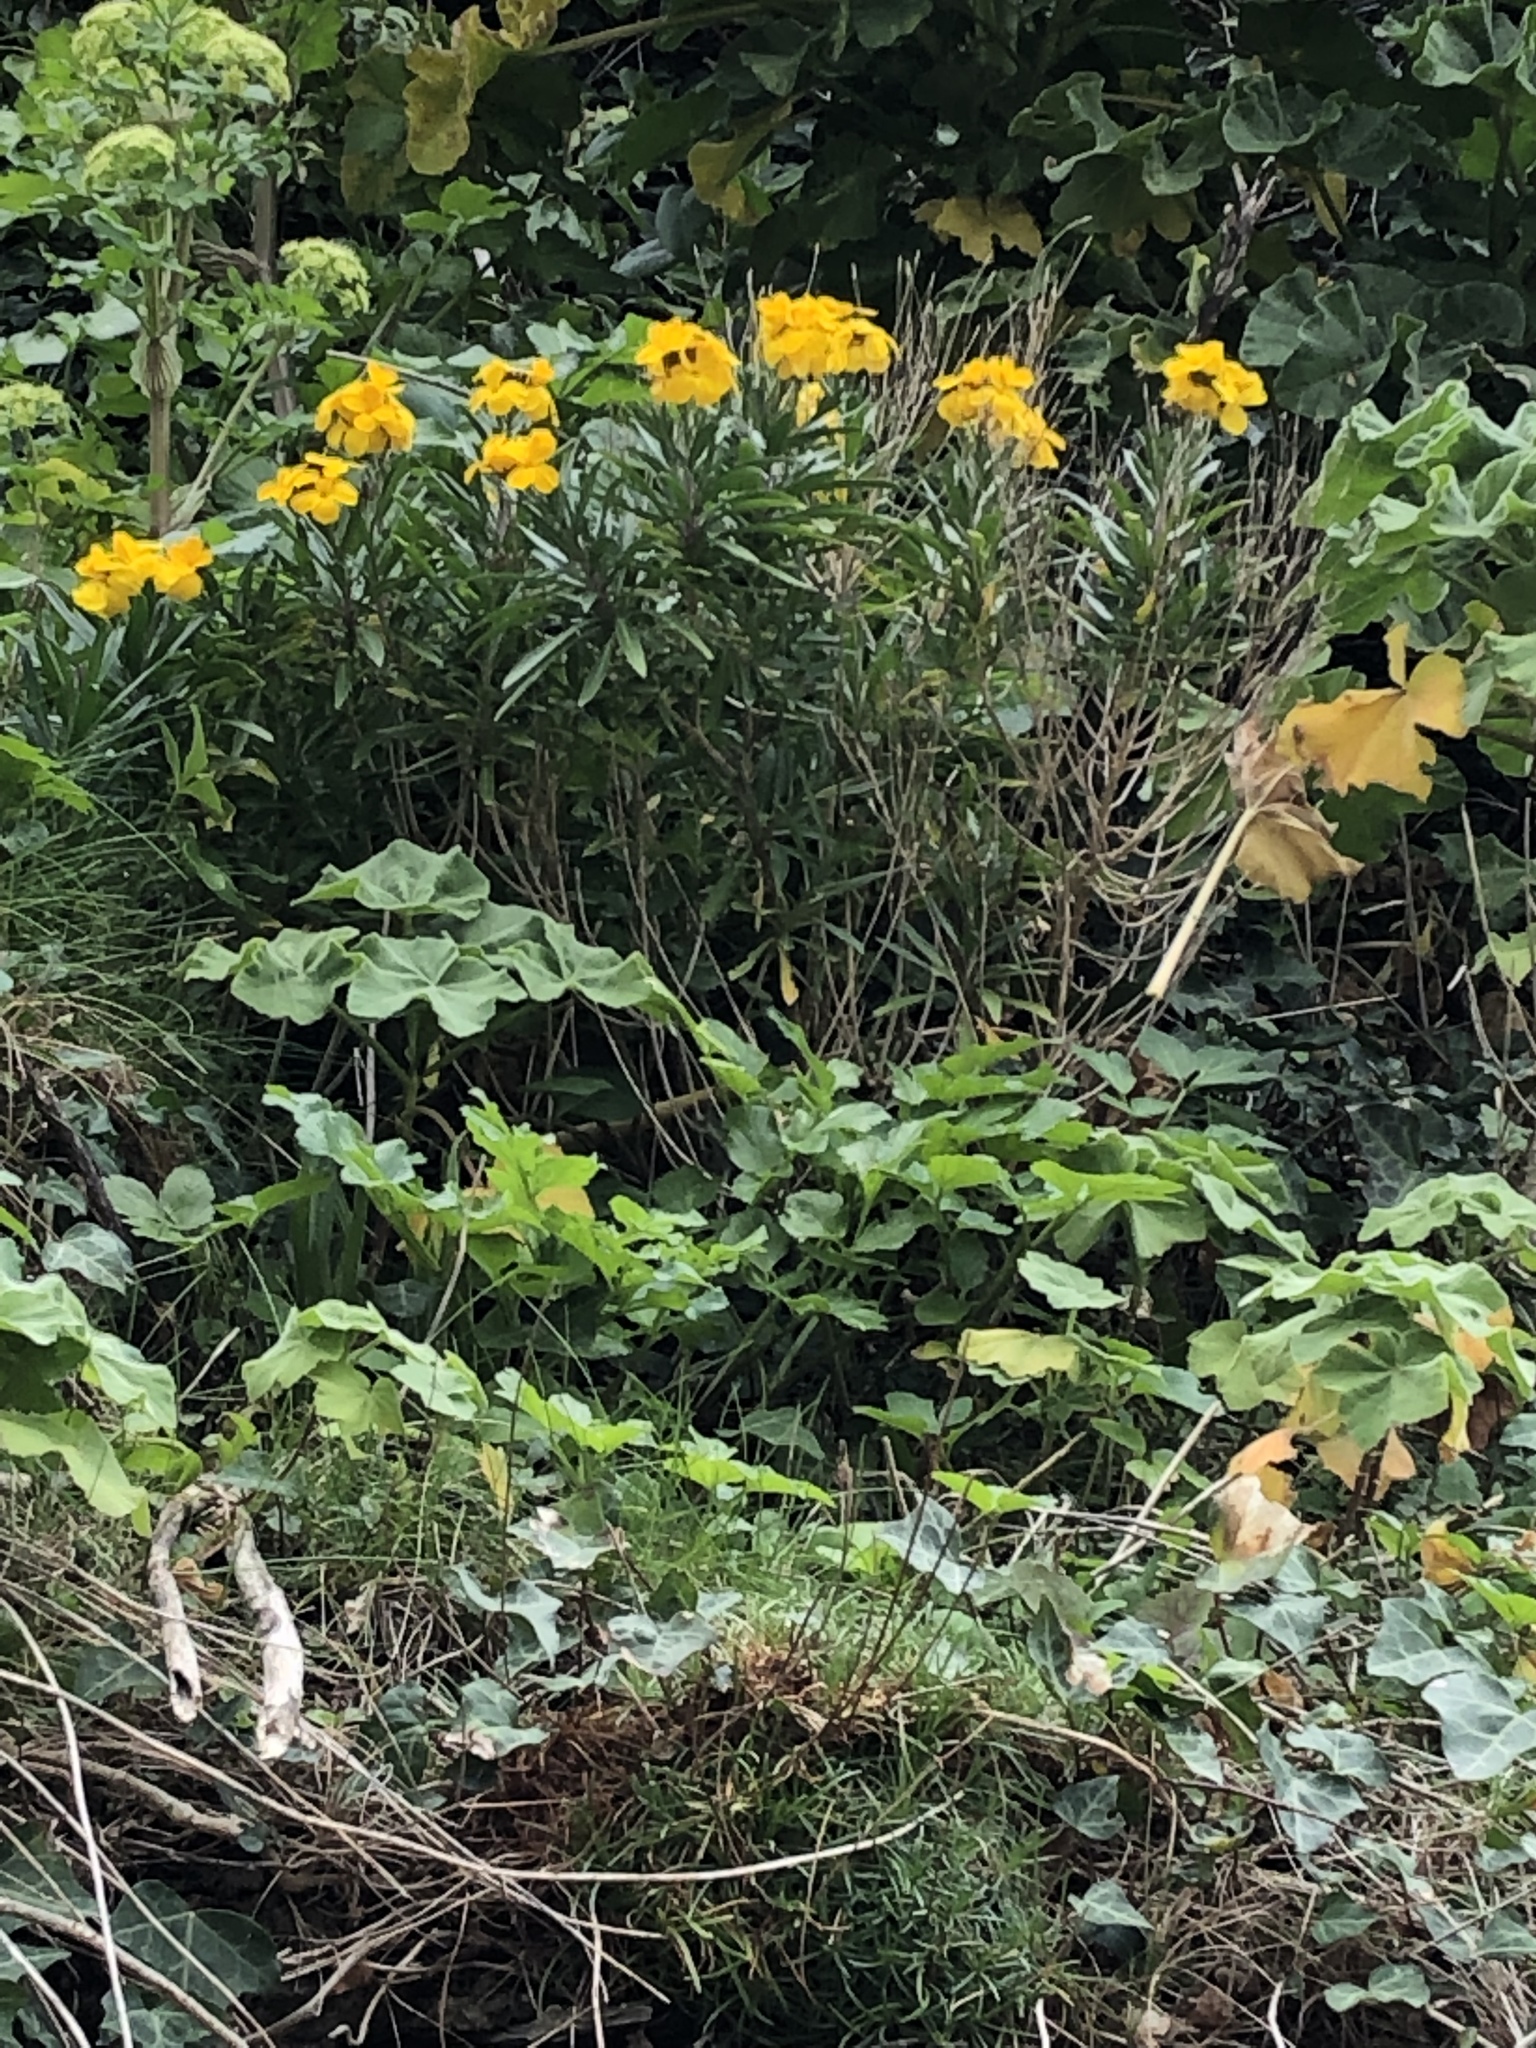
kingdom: Plantae
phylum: Tracheophyta
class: Magnoliopsida
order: Brassicales
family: Brassicaceae
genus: Erysimum
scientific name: Erysimum cheiri
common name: Wallflower
